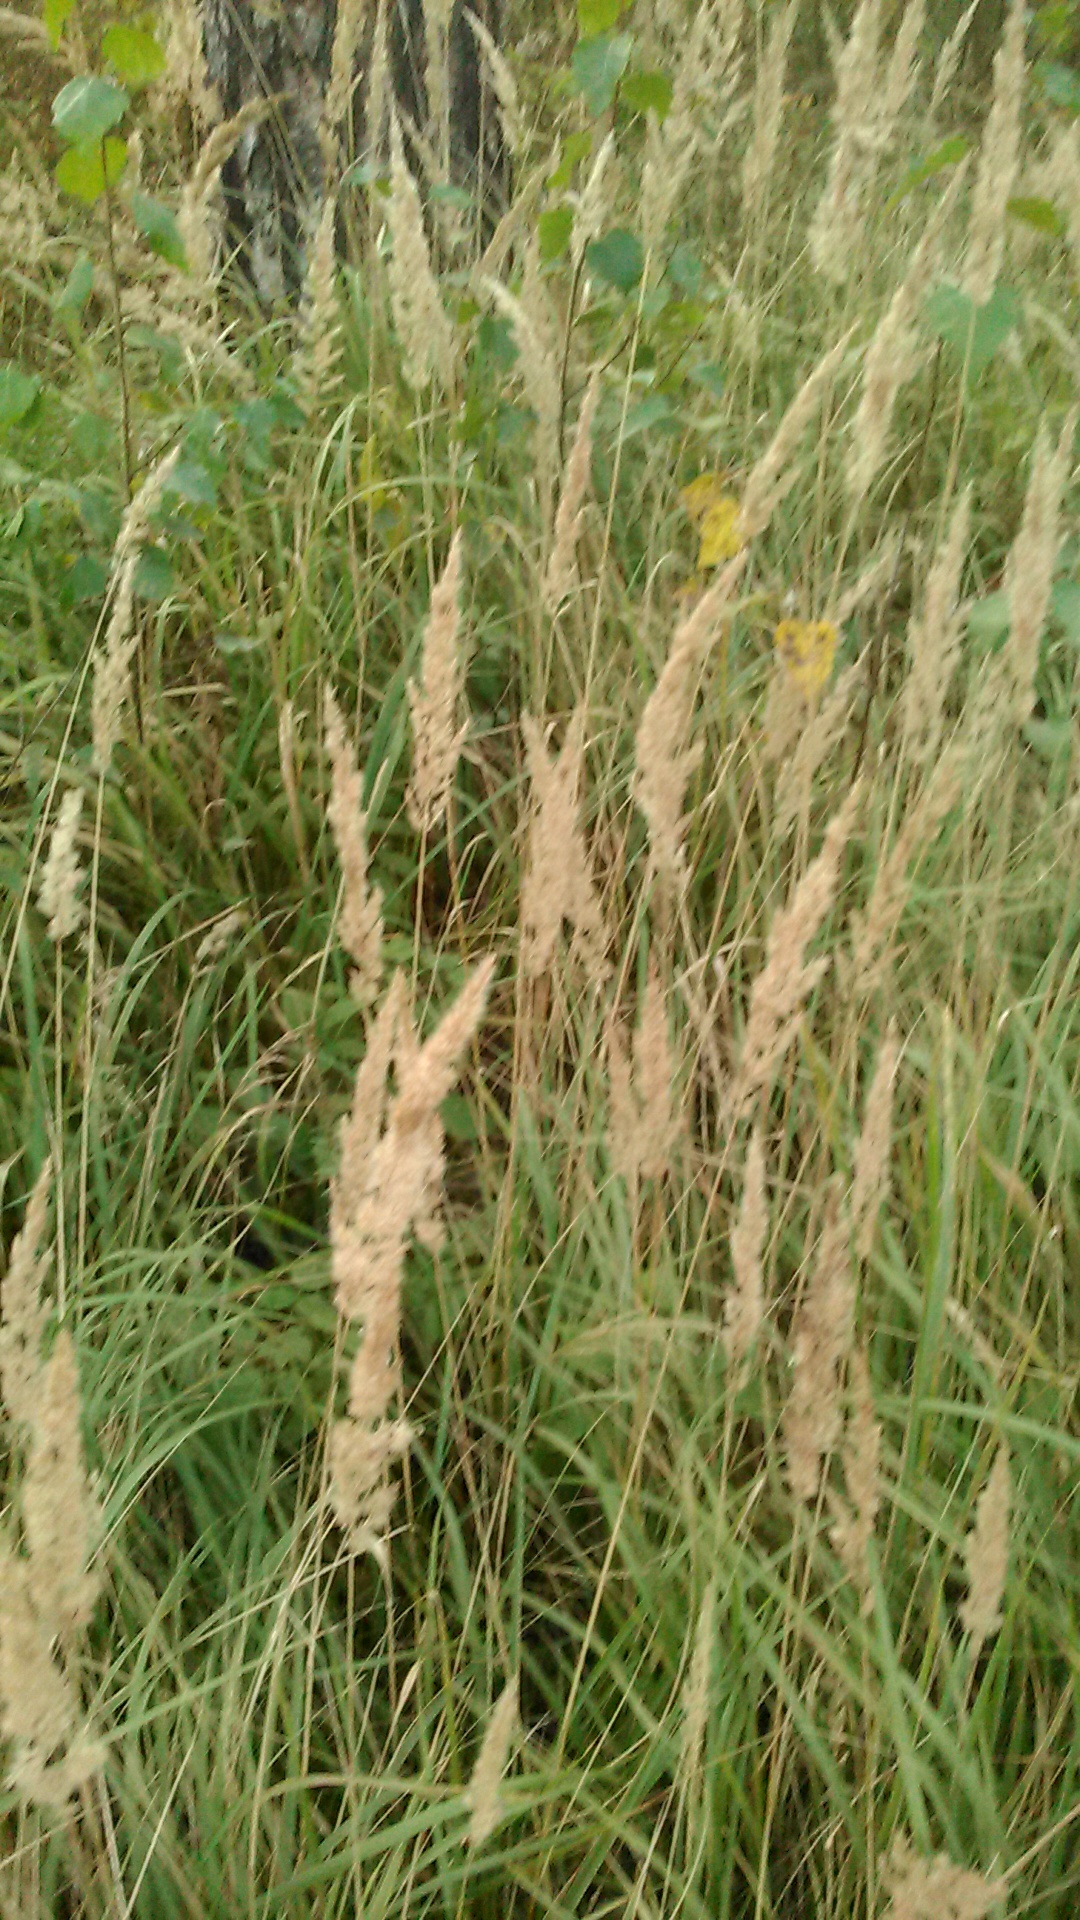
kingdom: Plantae
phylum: Tracheophyta
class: Liliopsida
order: Poales
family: Poaceae
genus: Calamagrostis
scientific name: Calamagrostis epigejos
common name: Wood small-reed
